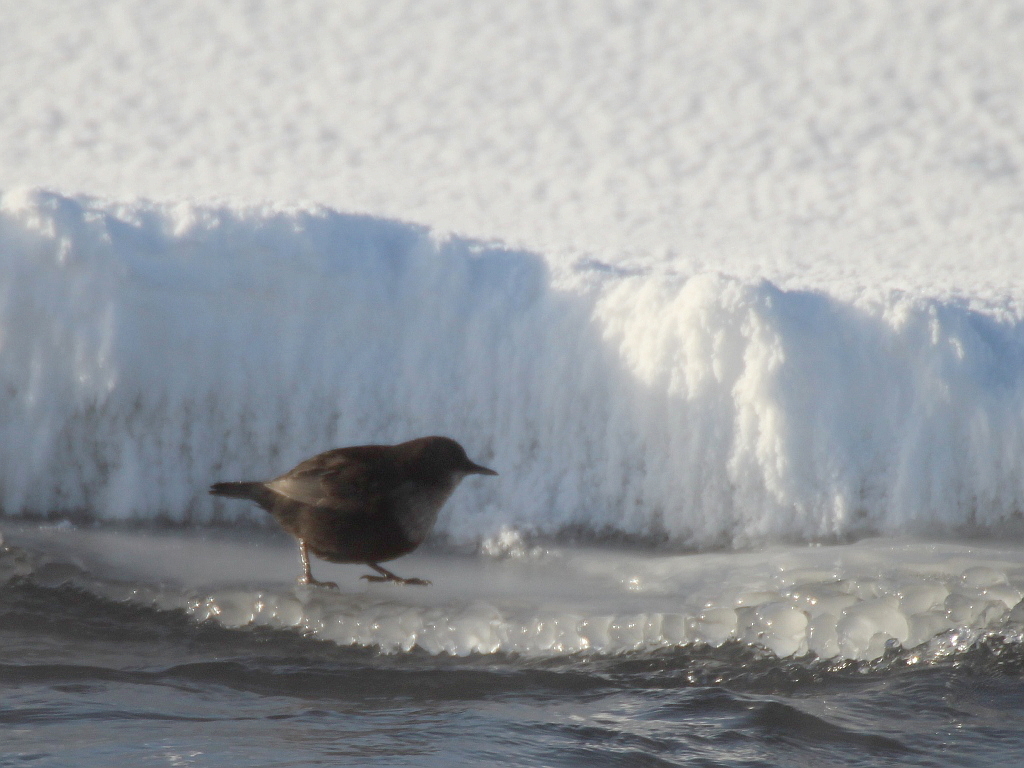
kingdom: Animalia
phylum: Chordata
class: Aves
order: Passeriformes
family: Cinclidae
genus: Cinclus
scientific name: Cinclus cinclus
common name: White-throated dipper
